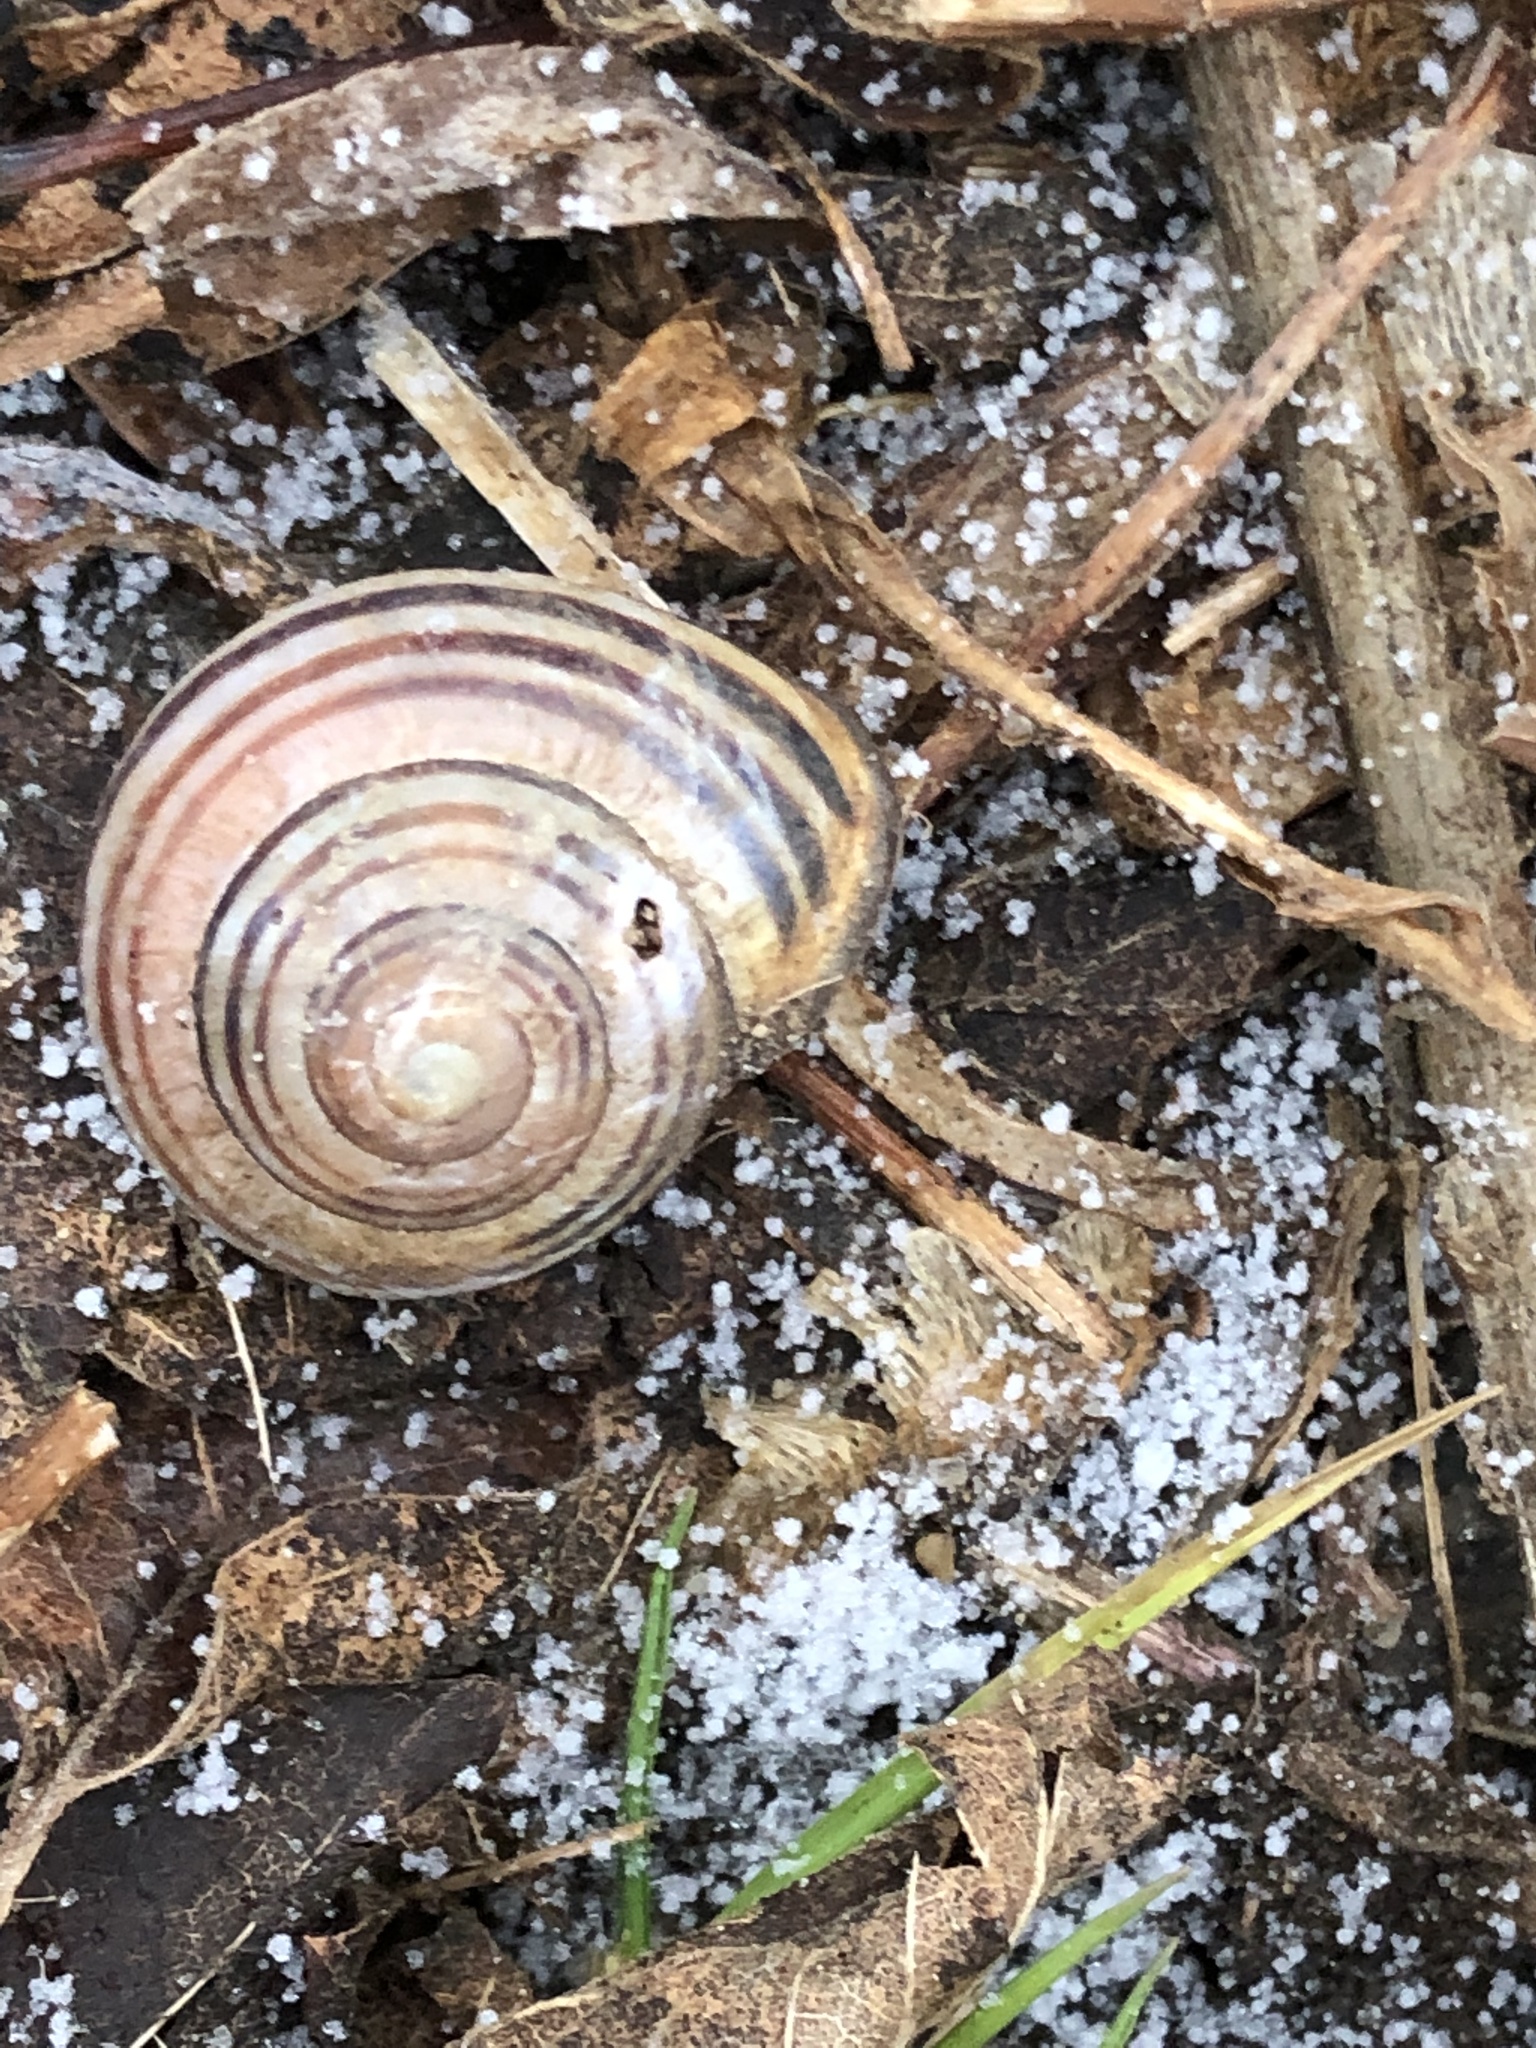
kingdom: Animalia
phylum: Mollusca
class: Gastropoda
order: Stylommatophora
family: Helicidae
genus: Cepaea
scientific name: Cepaea nemoralis
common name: Grovesnail
